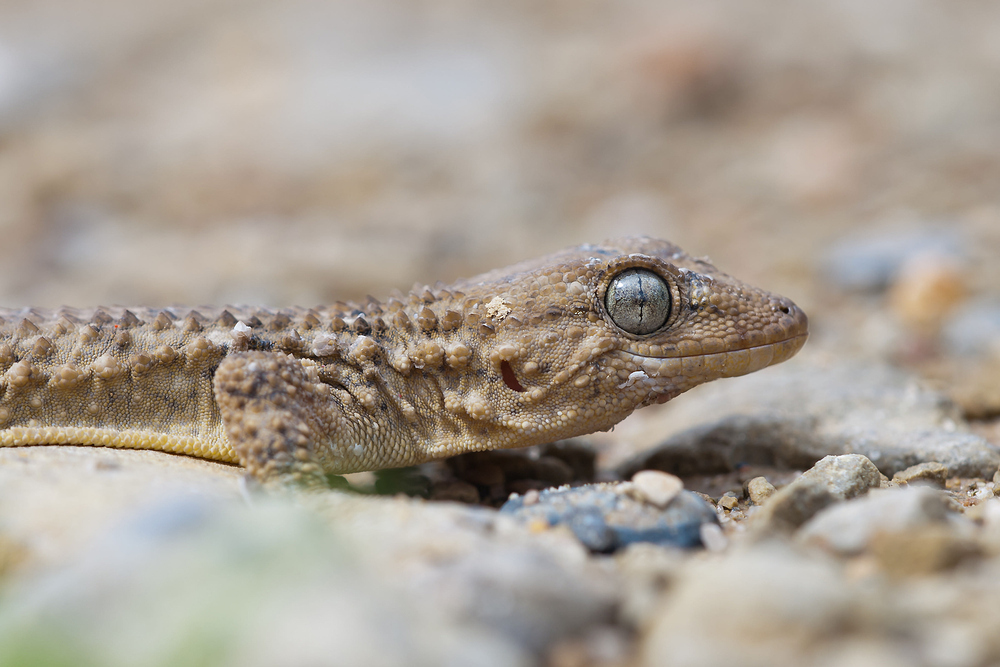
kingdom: Animalia
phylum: Chordata
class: Squamata
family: Phyllodactylidae
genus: Tarentola
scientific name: Tarentola mauritanica
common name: Moorish gecko
